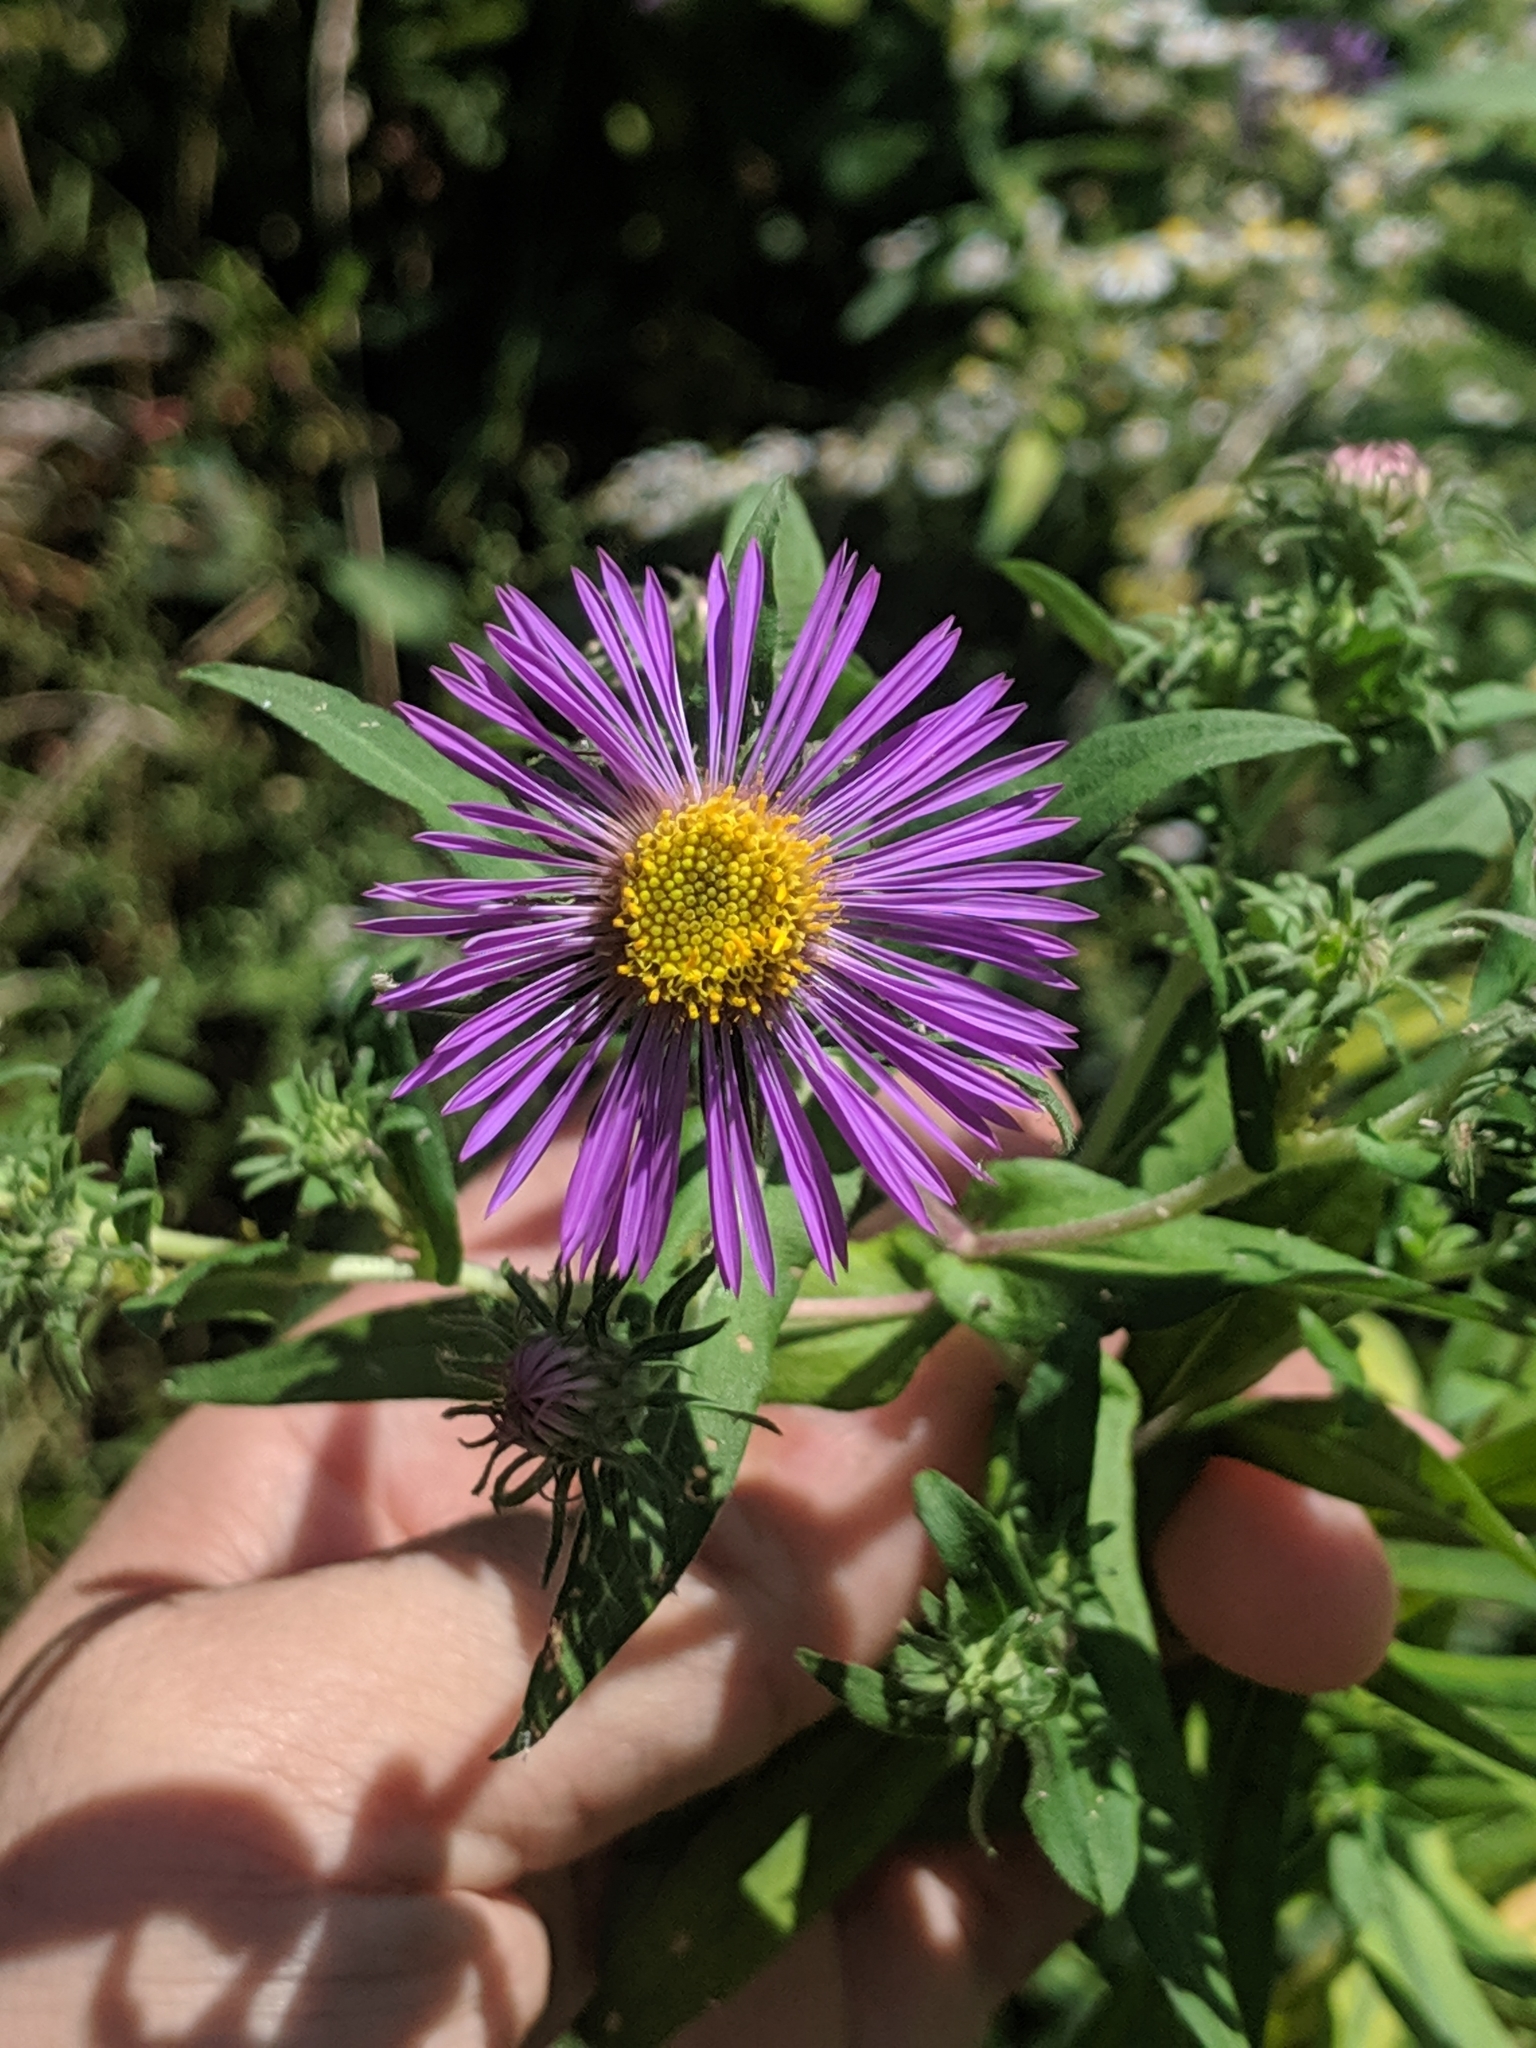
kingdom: Plantae
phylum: Tracheophyta
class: Magnoliopsida
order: Asterales
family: Asteraceae
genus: Symphyotrichum
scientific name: Symphyotrichum novae-angliae
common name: Michaelmas daisy
